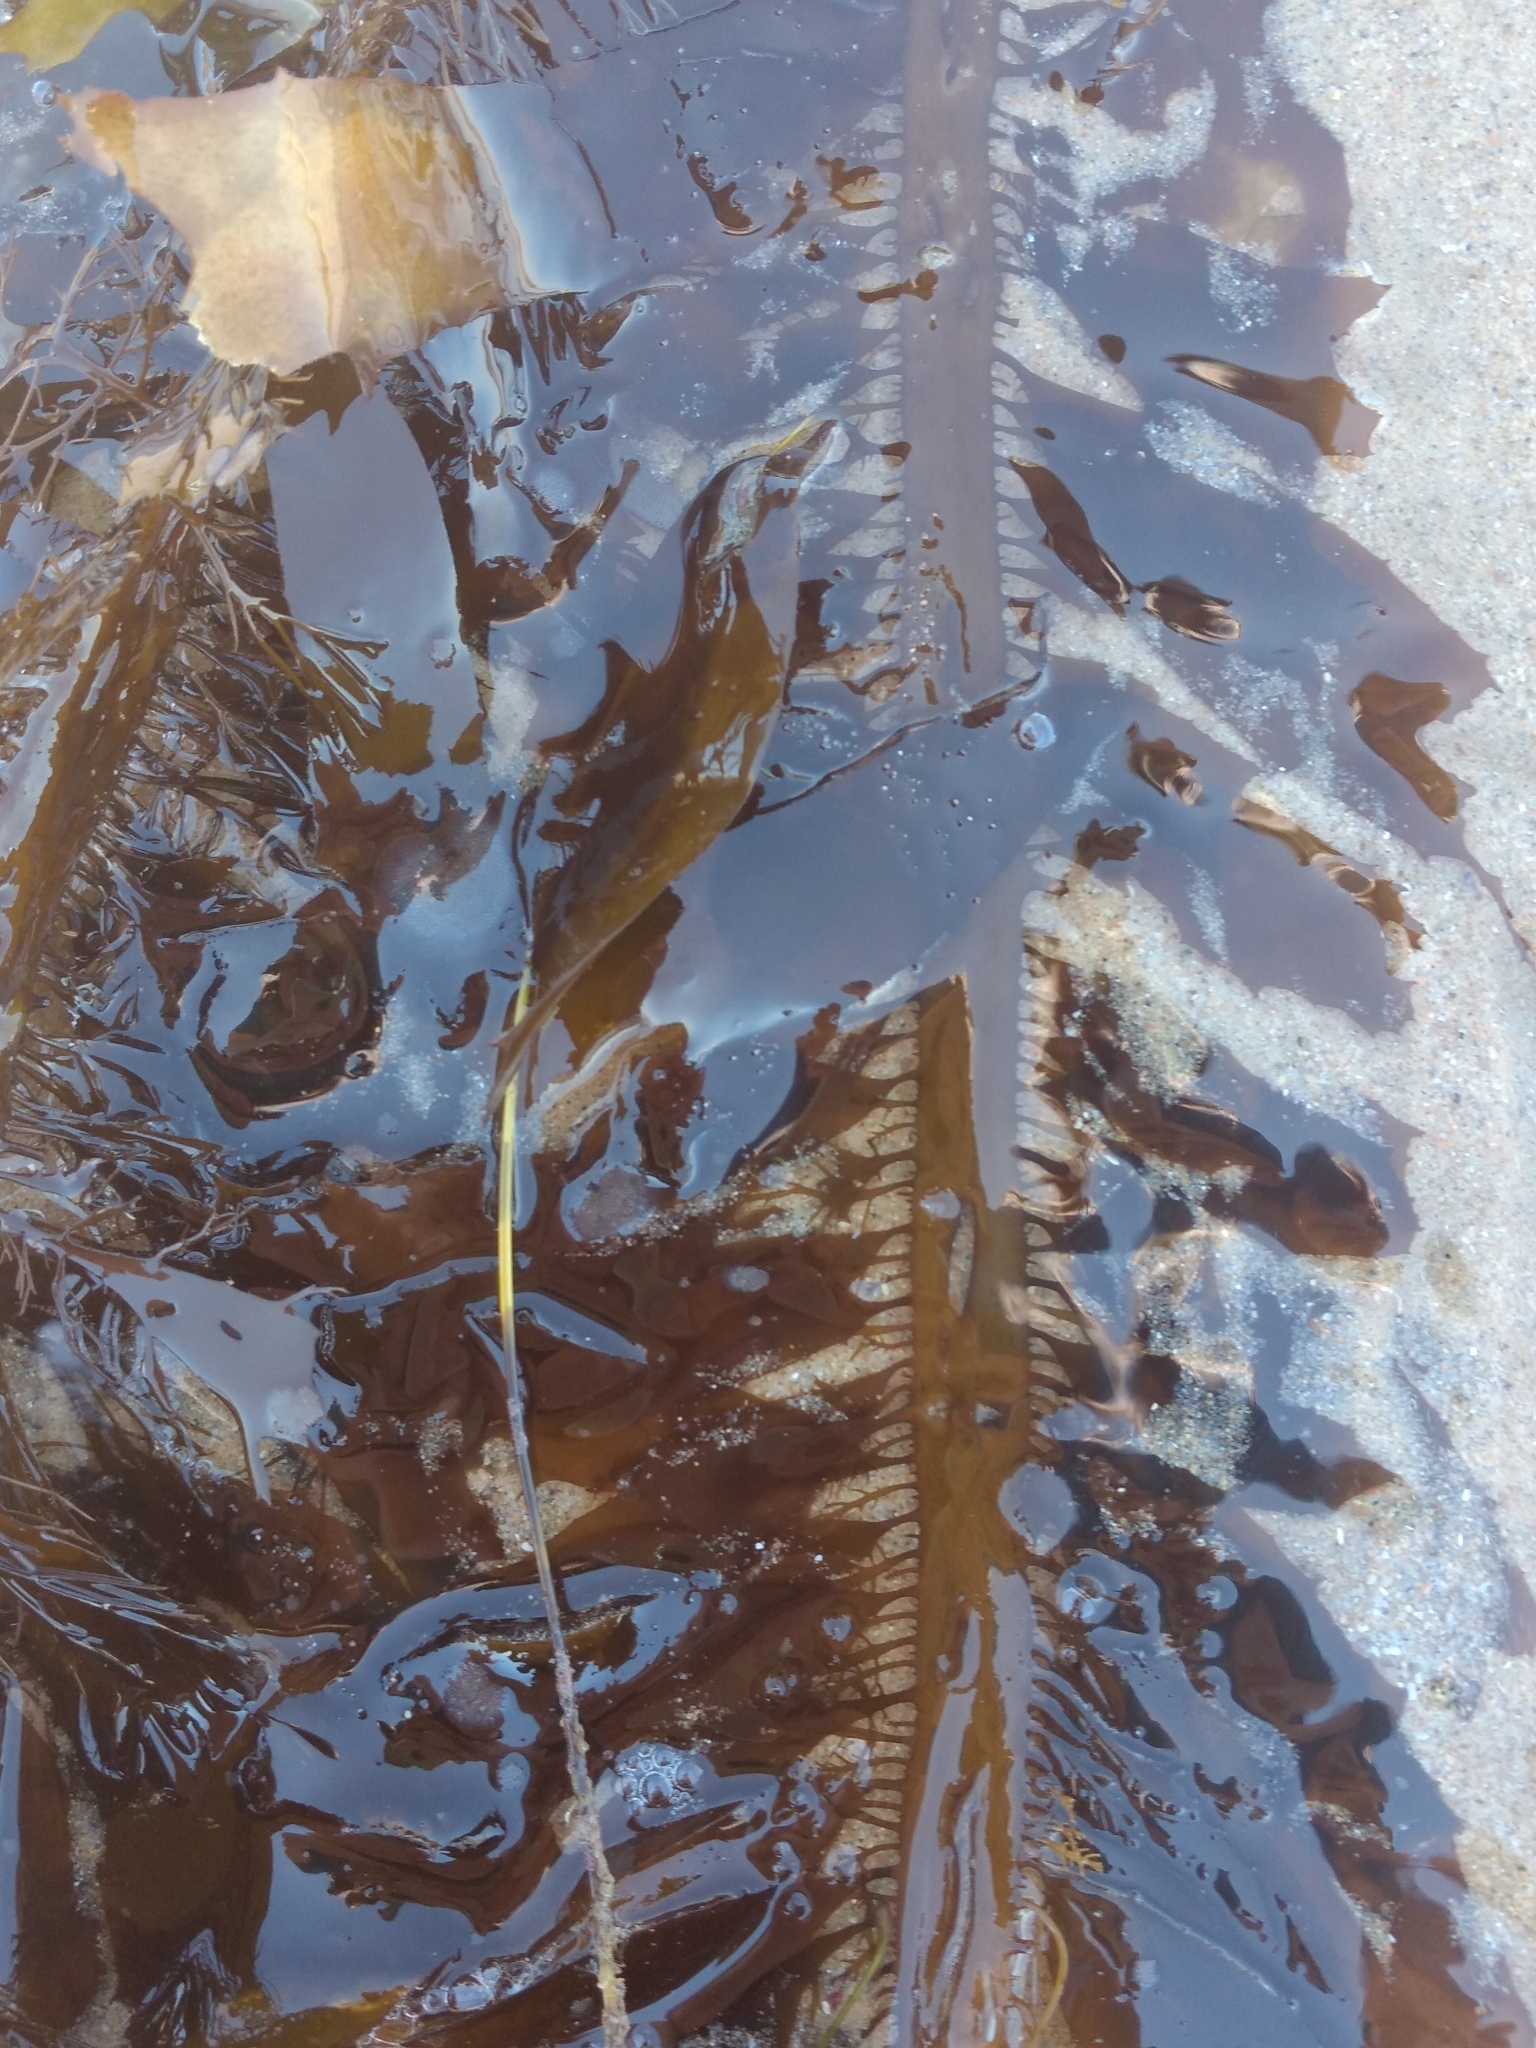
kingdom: Chromista
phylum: Ochrophyta
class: Phaeophyceae
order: Laminariales
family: Lessoniaceae
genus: Egregia
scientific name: Egregia menziesii
